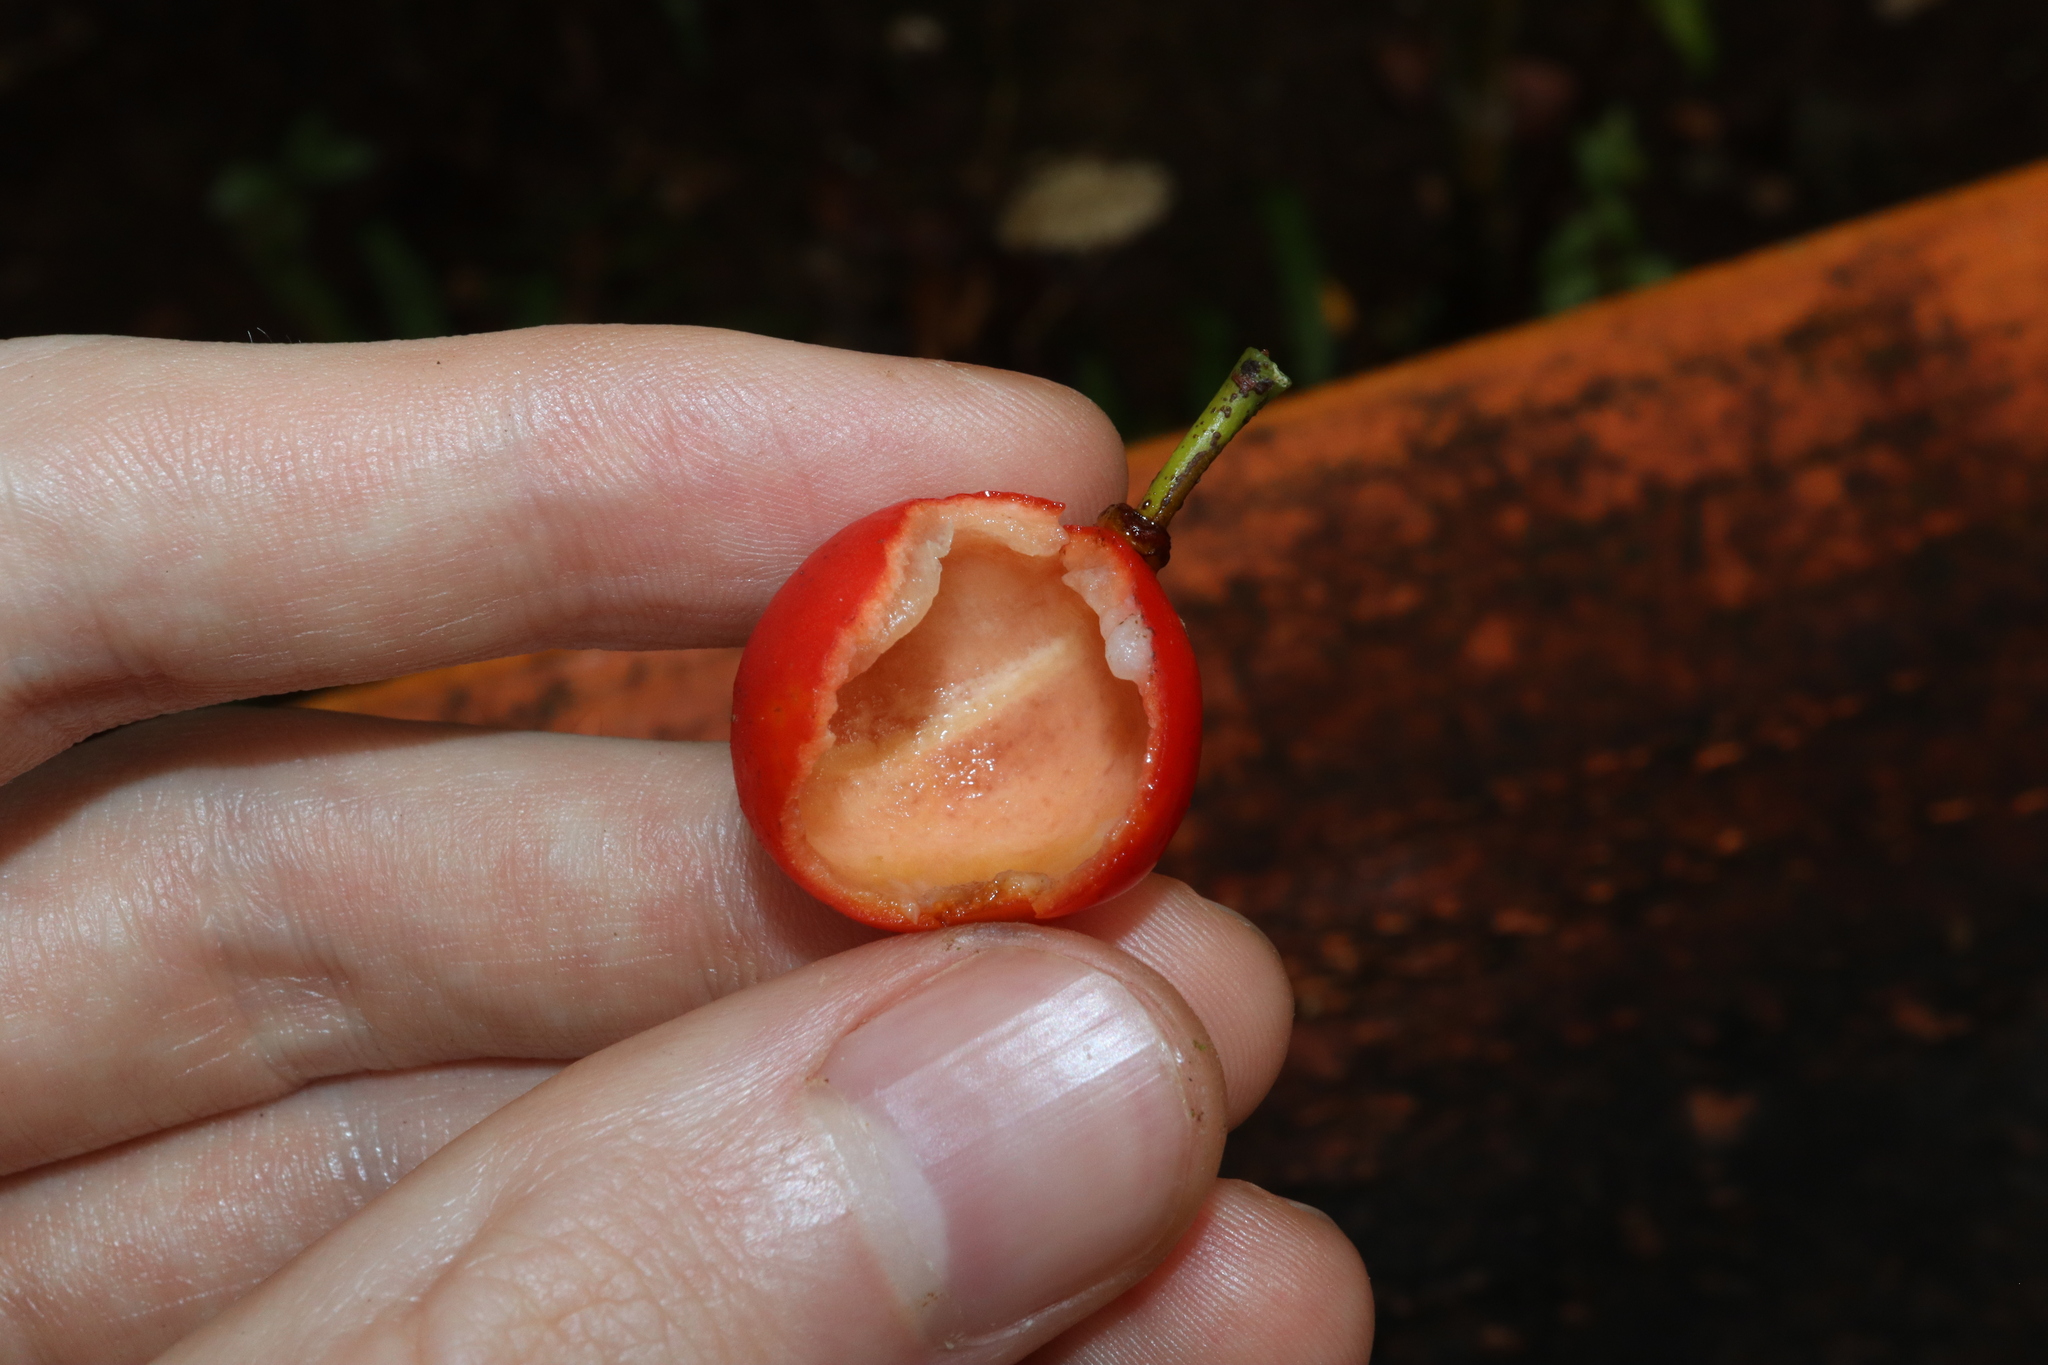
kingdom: Plantae
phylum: Tracheophyta
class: Magnoliopsida
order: Celastrales
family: Celastraceae
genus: Salacia
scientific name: Salacia chinensis
